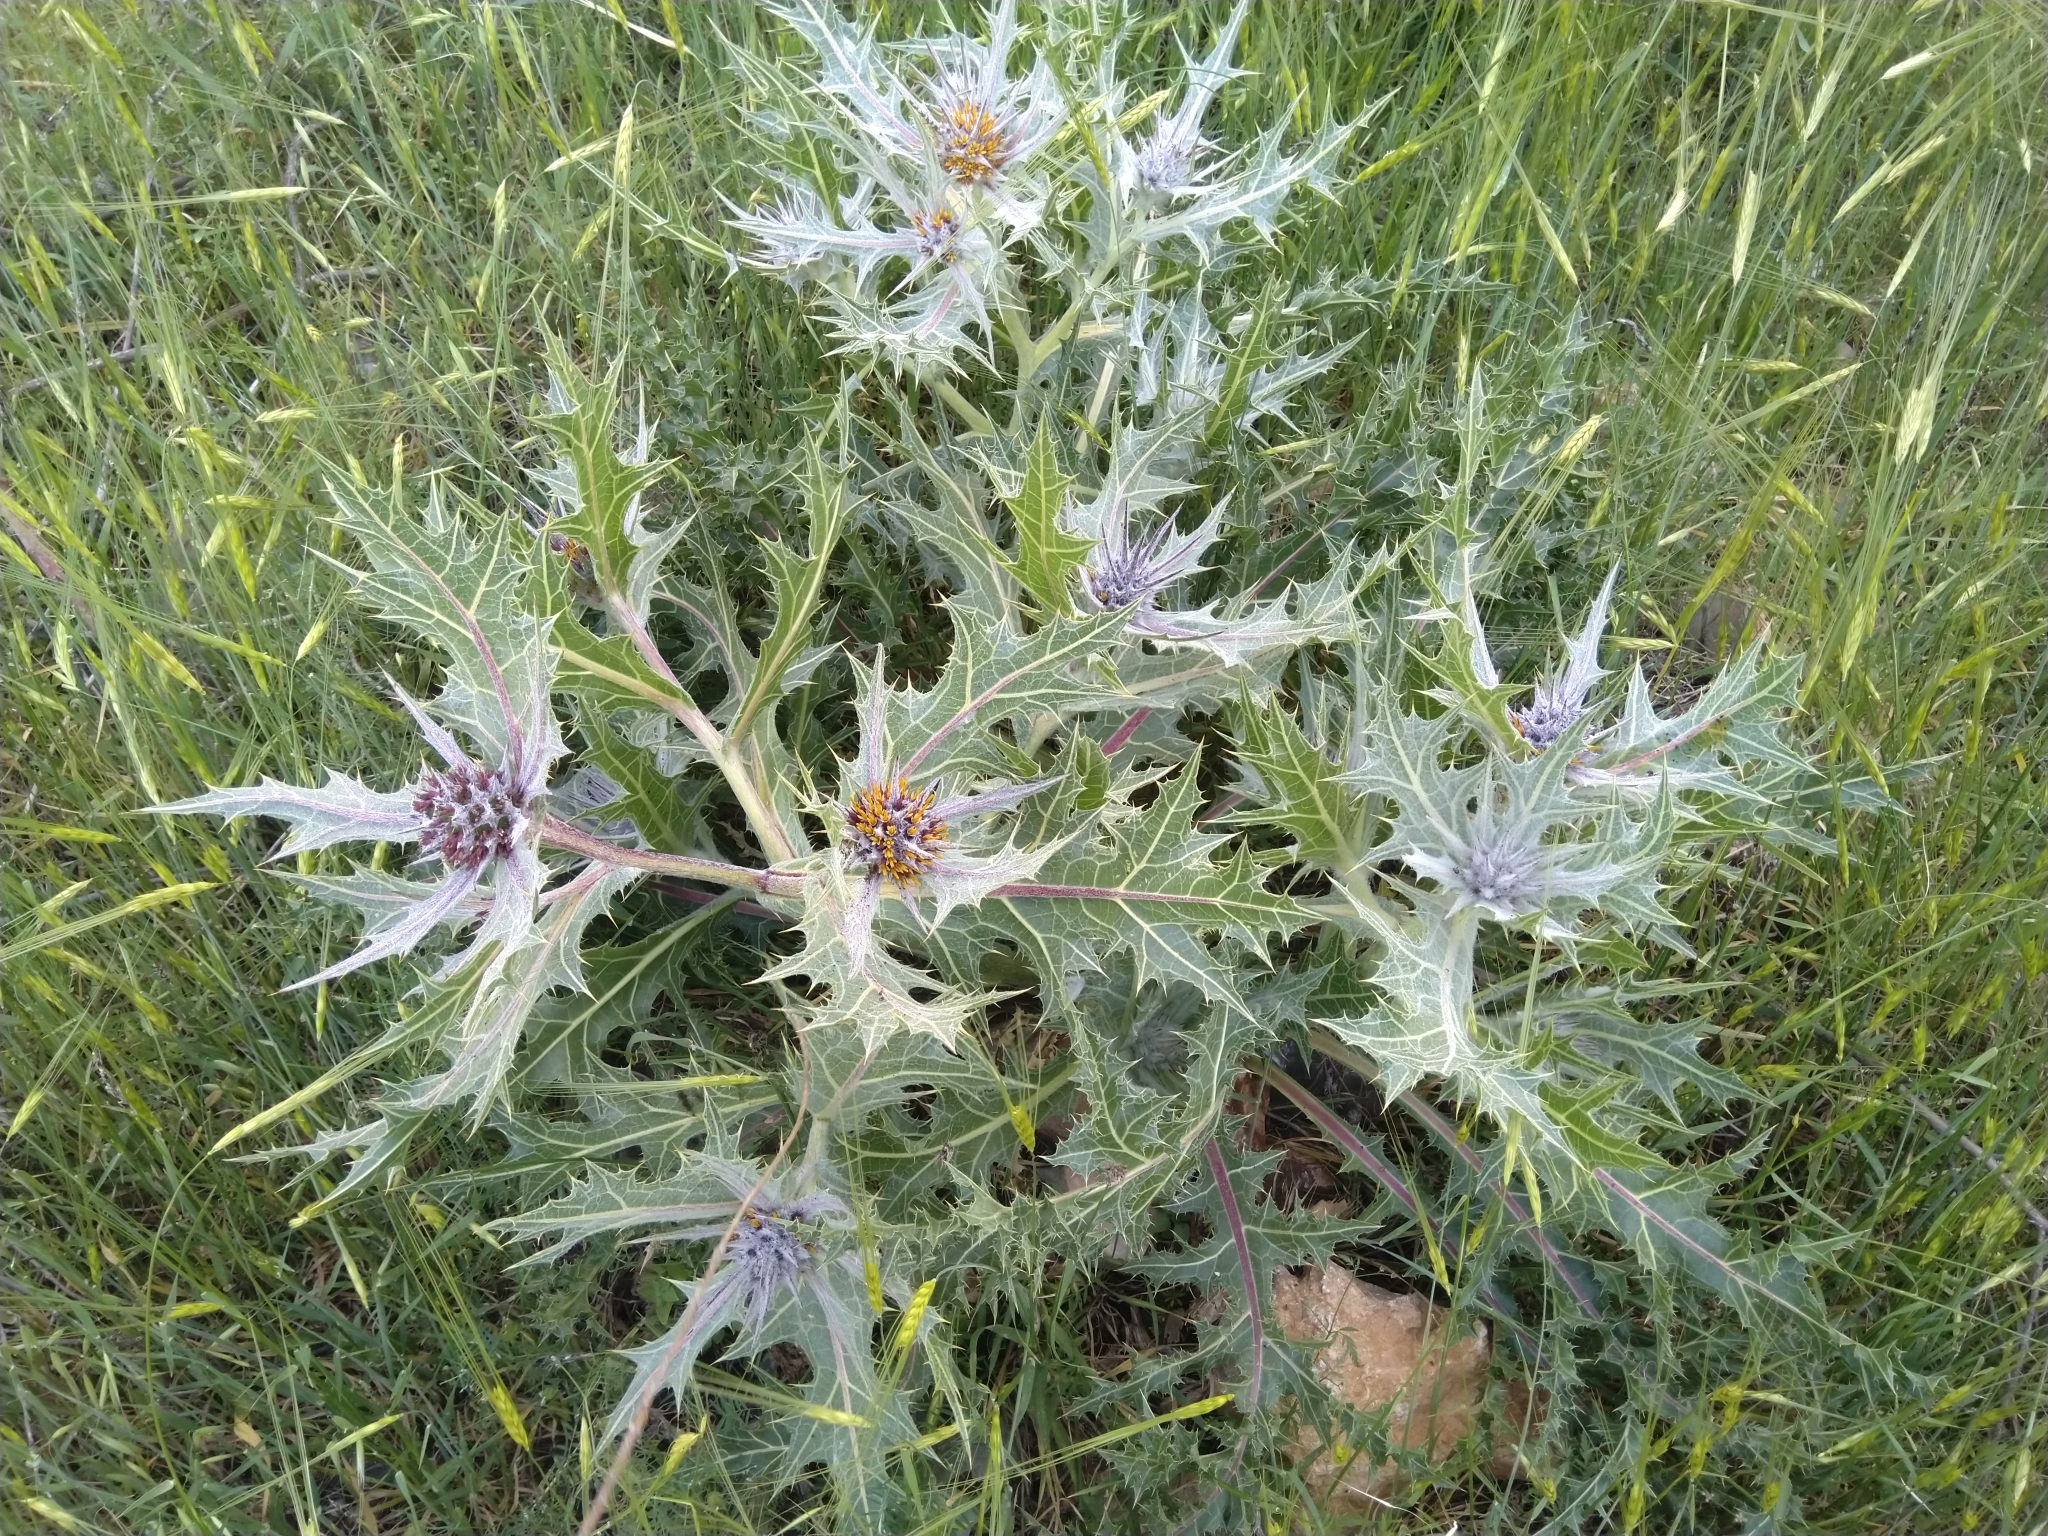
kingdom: Plantae
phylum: Tracheophyta
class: Magnoliopsida
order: Asterales
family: Asteraceae
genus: Gundelia
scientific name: Gundelia tournefortii
